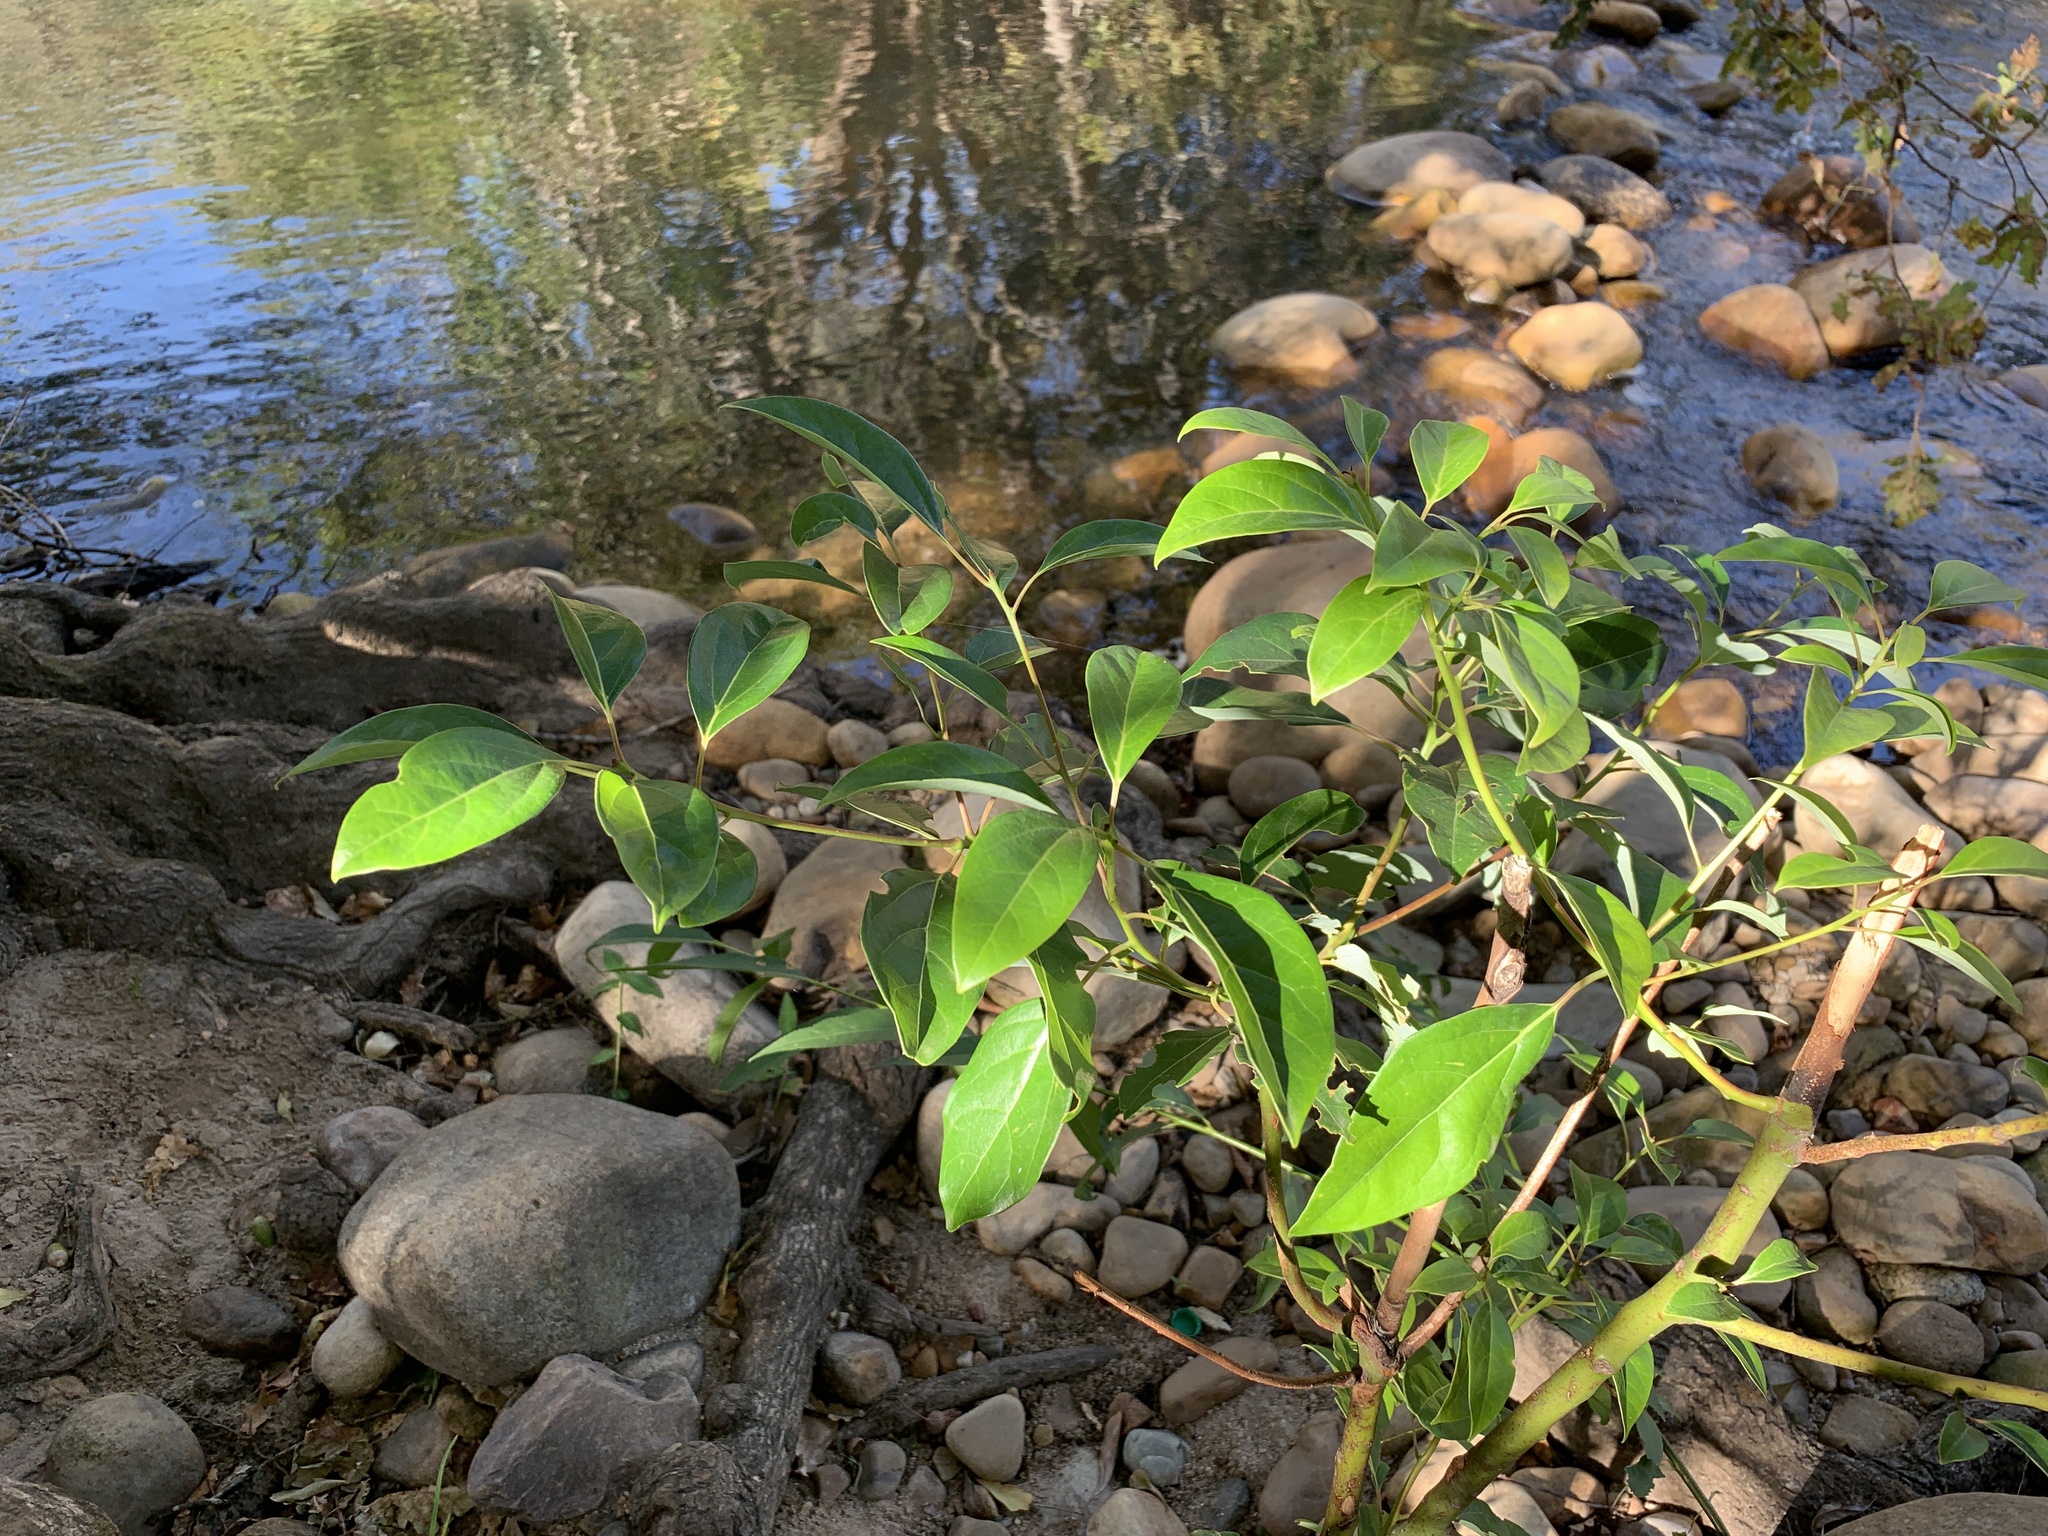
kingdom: Plantae
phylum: Tracheophyta
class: Magnoliopsida
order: Laurales
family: Lauraceae
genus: Cinnamomum
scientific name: Cinnamomum camphora
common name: Camphortree
